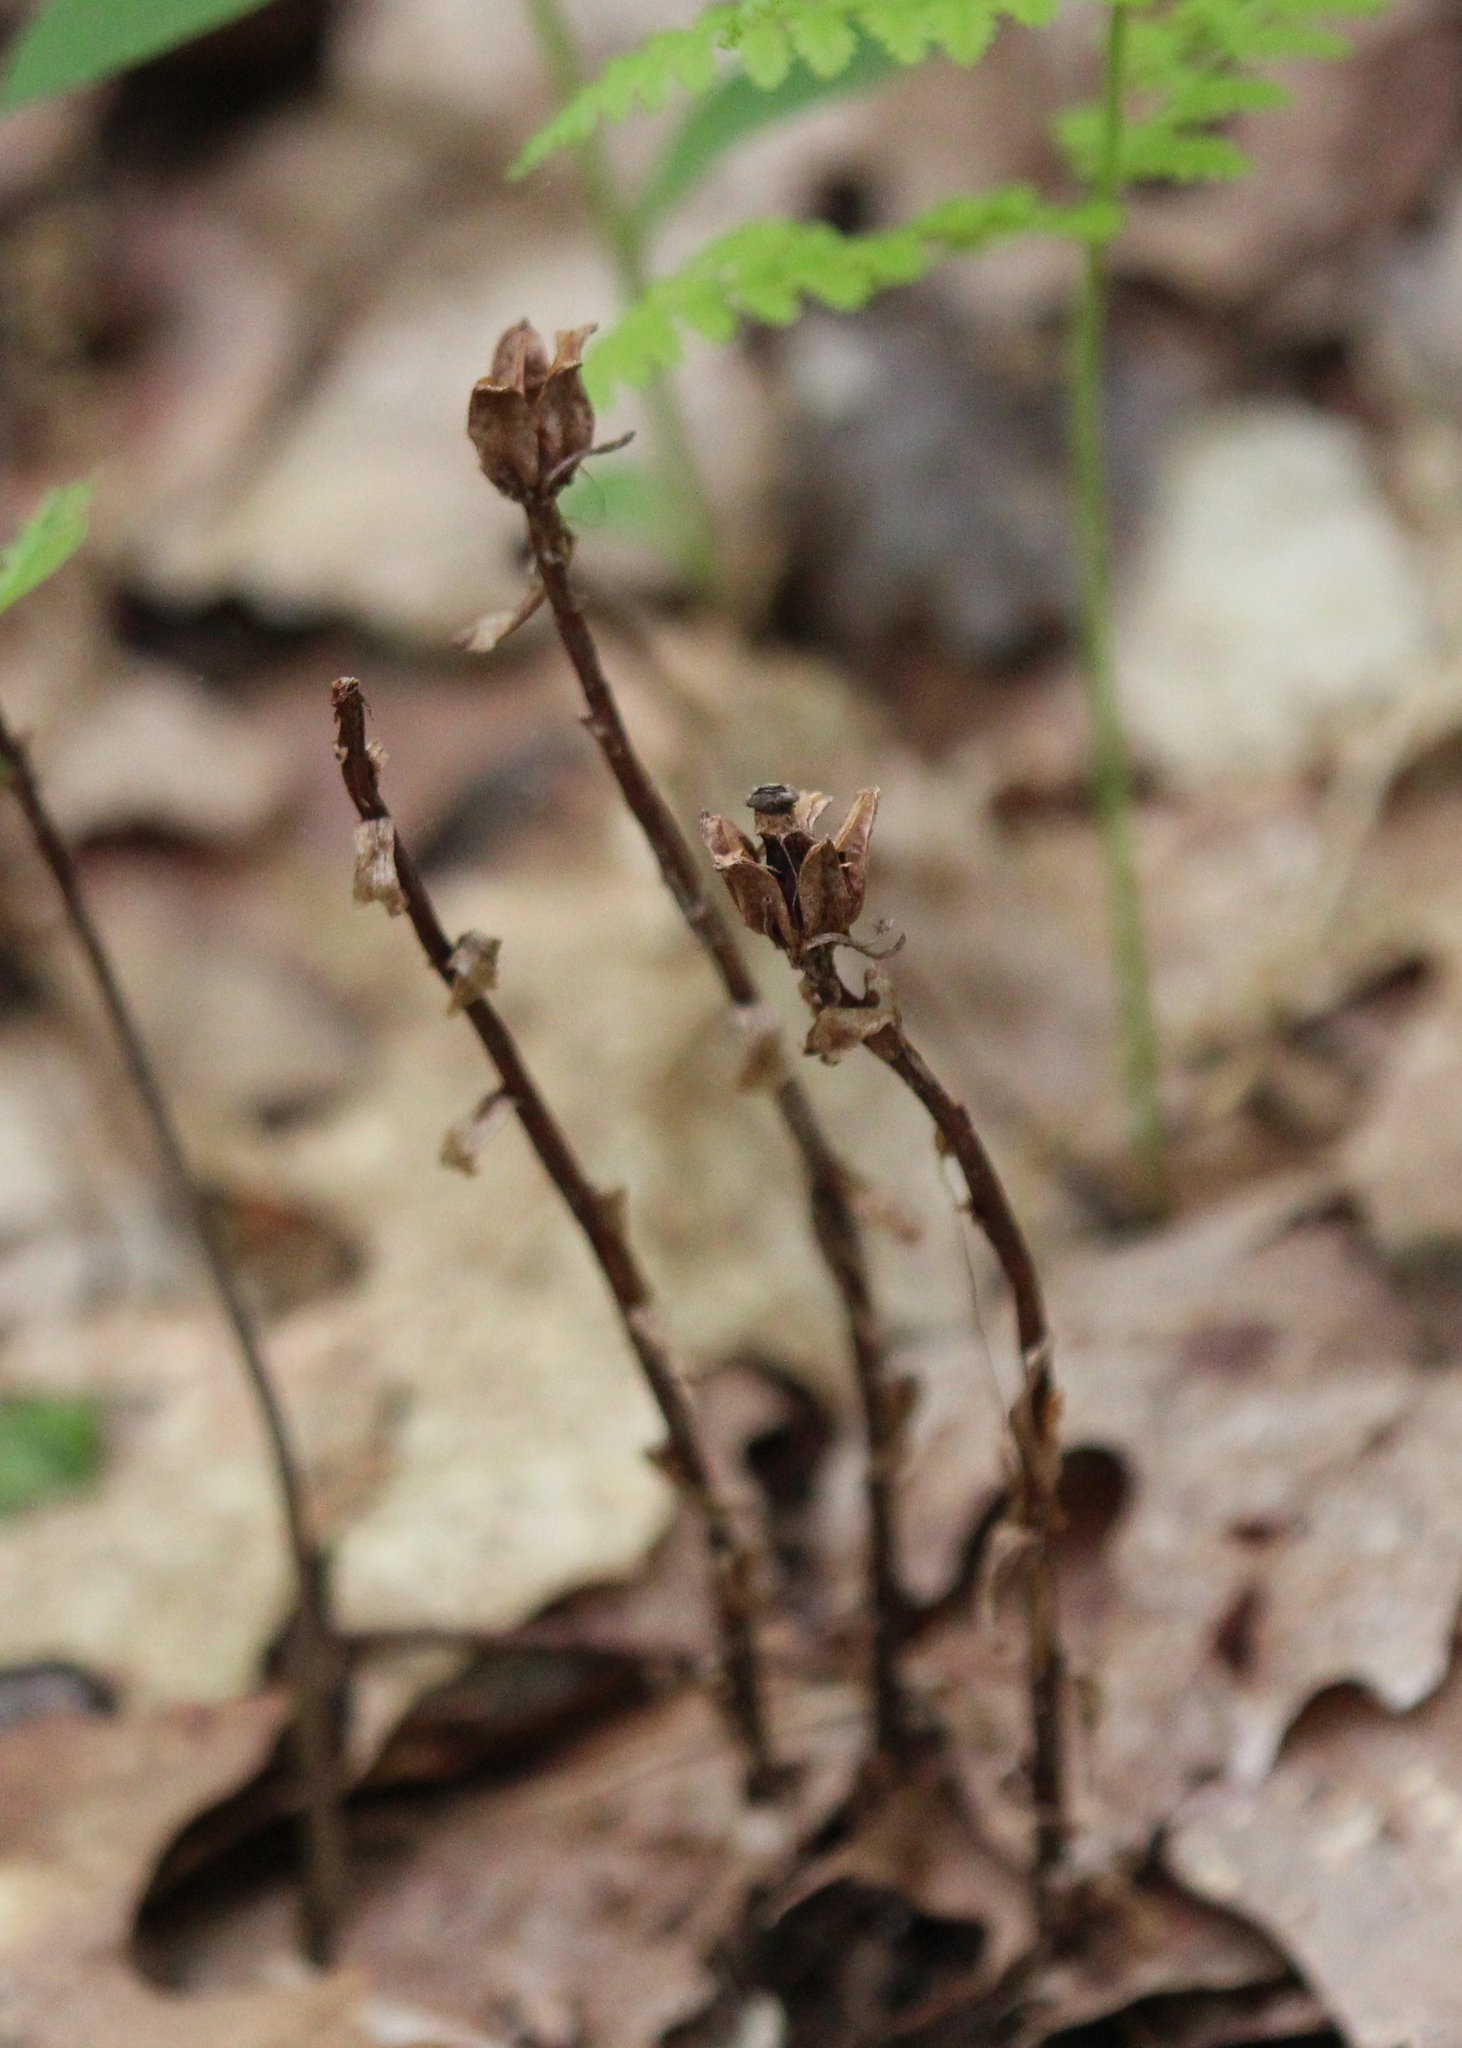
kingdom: Plantae
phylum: Tracheophyta
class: Magnoliopsida
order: Ericales
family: Ericaceae
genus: Monotropa
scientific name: Monotropa uniflora
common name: Convulsion root
